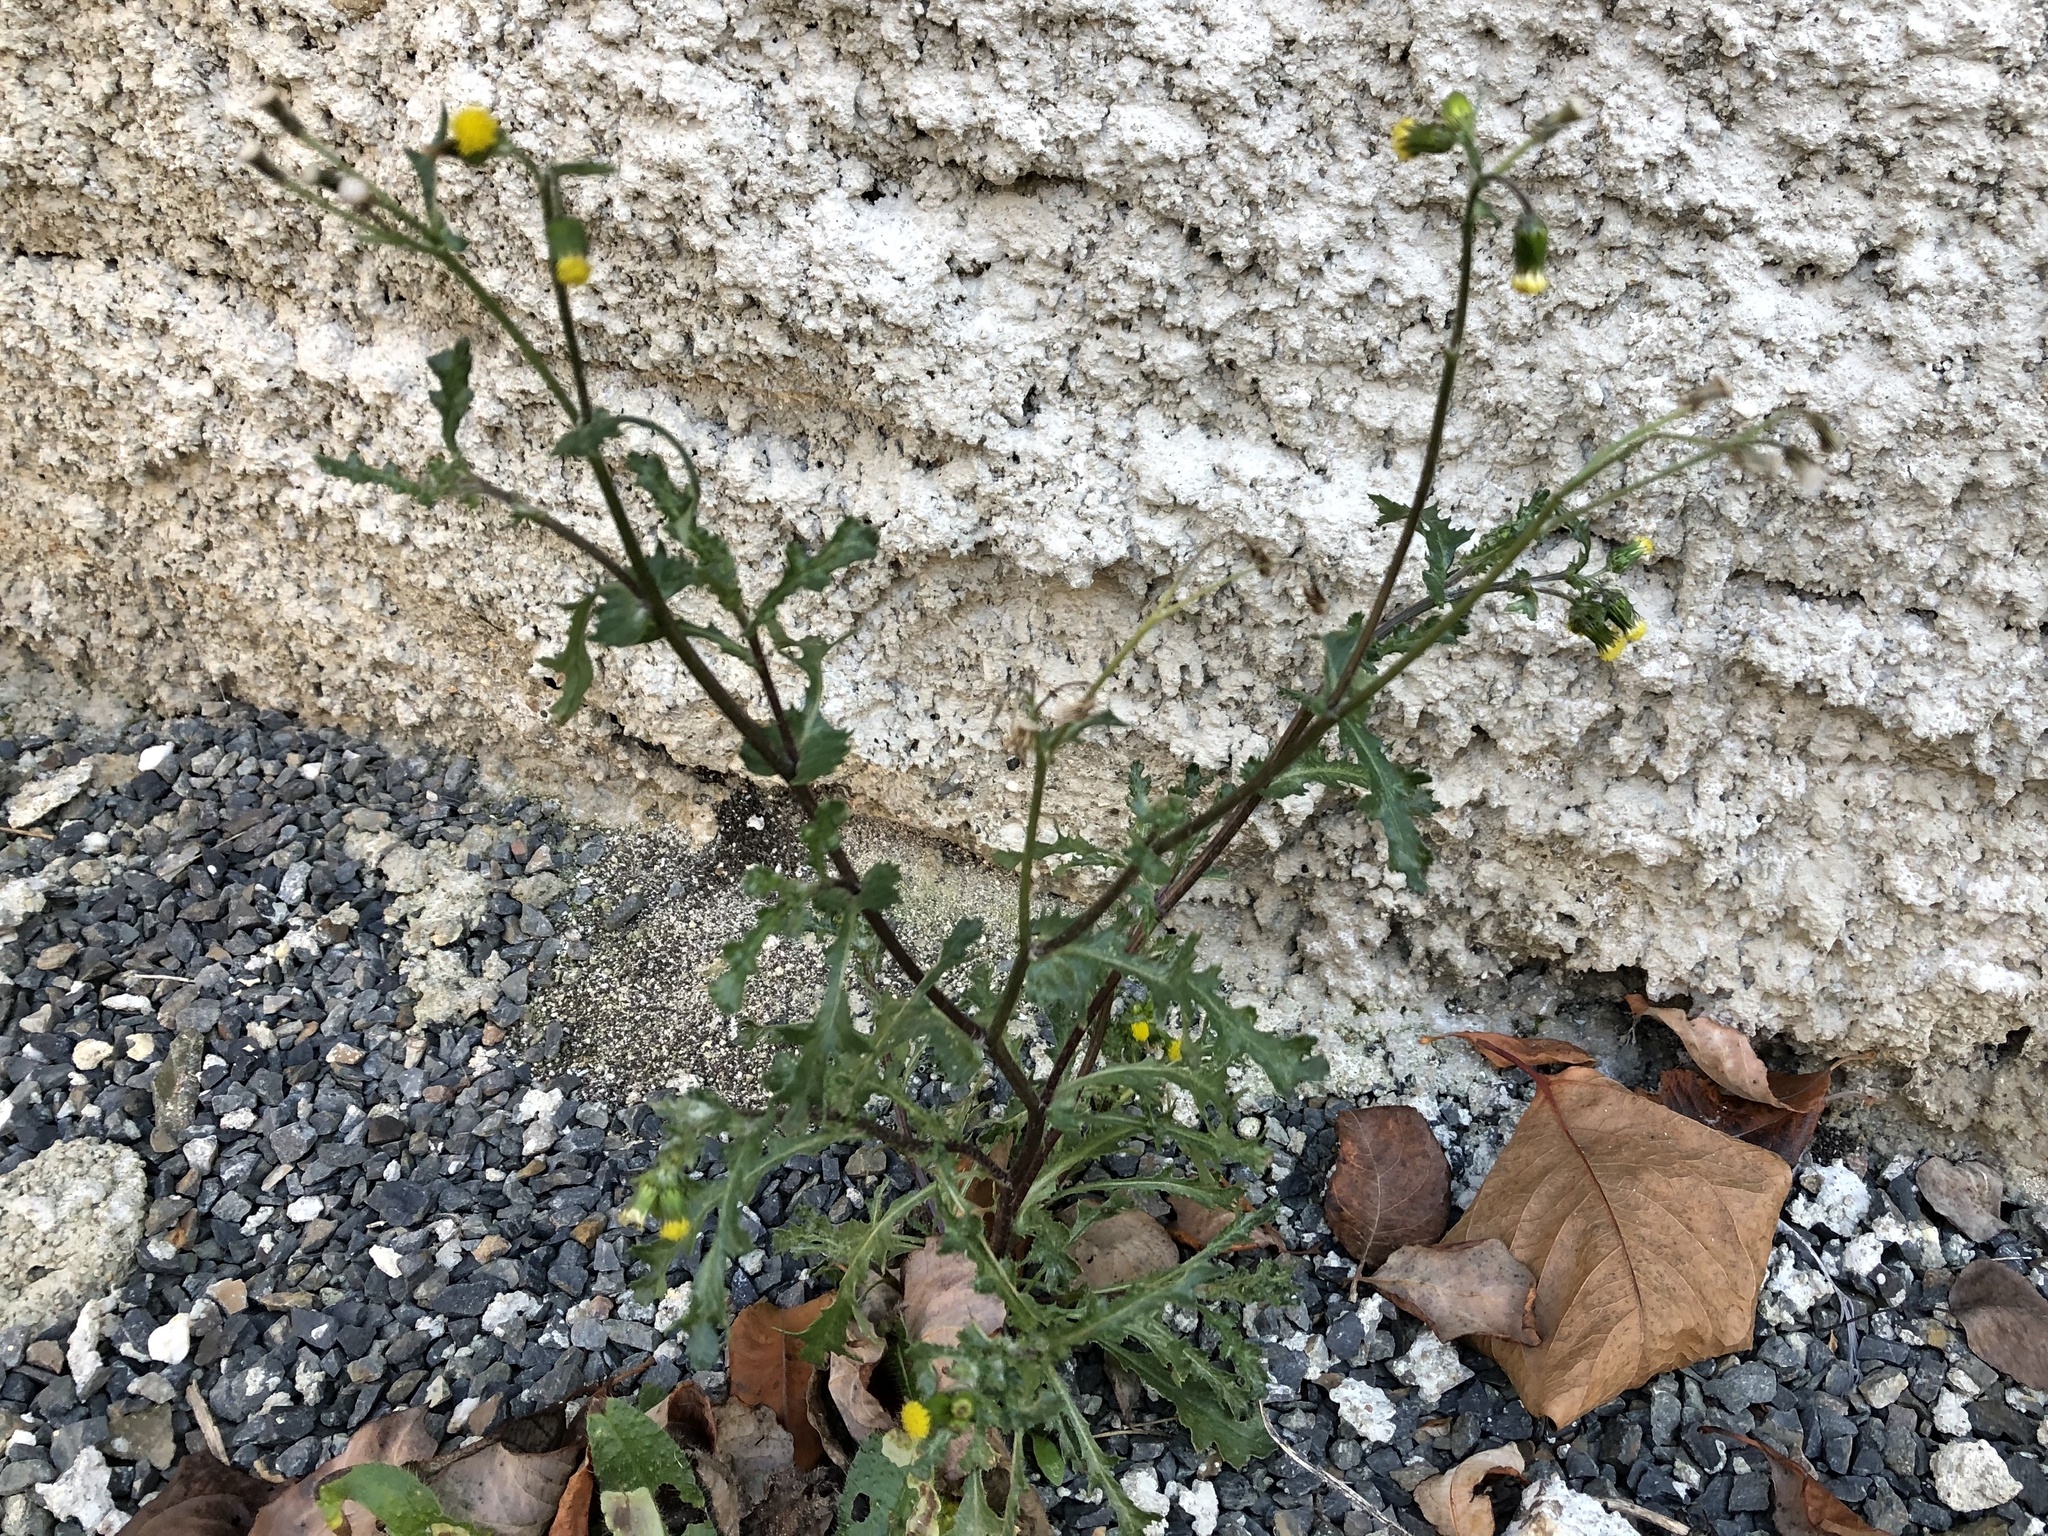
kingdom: Plantae
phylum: Tracheophyta
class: Magnoliopsida
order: Asterales
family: Asteraceae
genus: Senecio
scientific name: Senecio vulgaris
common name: Old-man-in-the-spring
